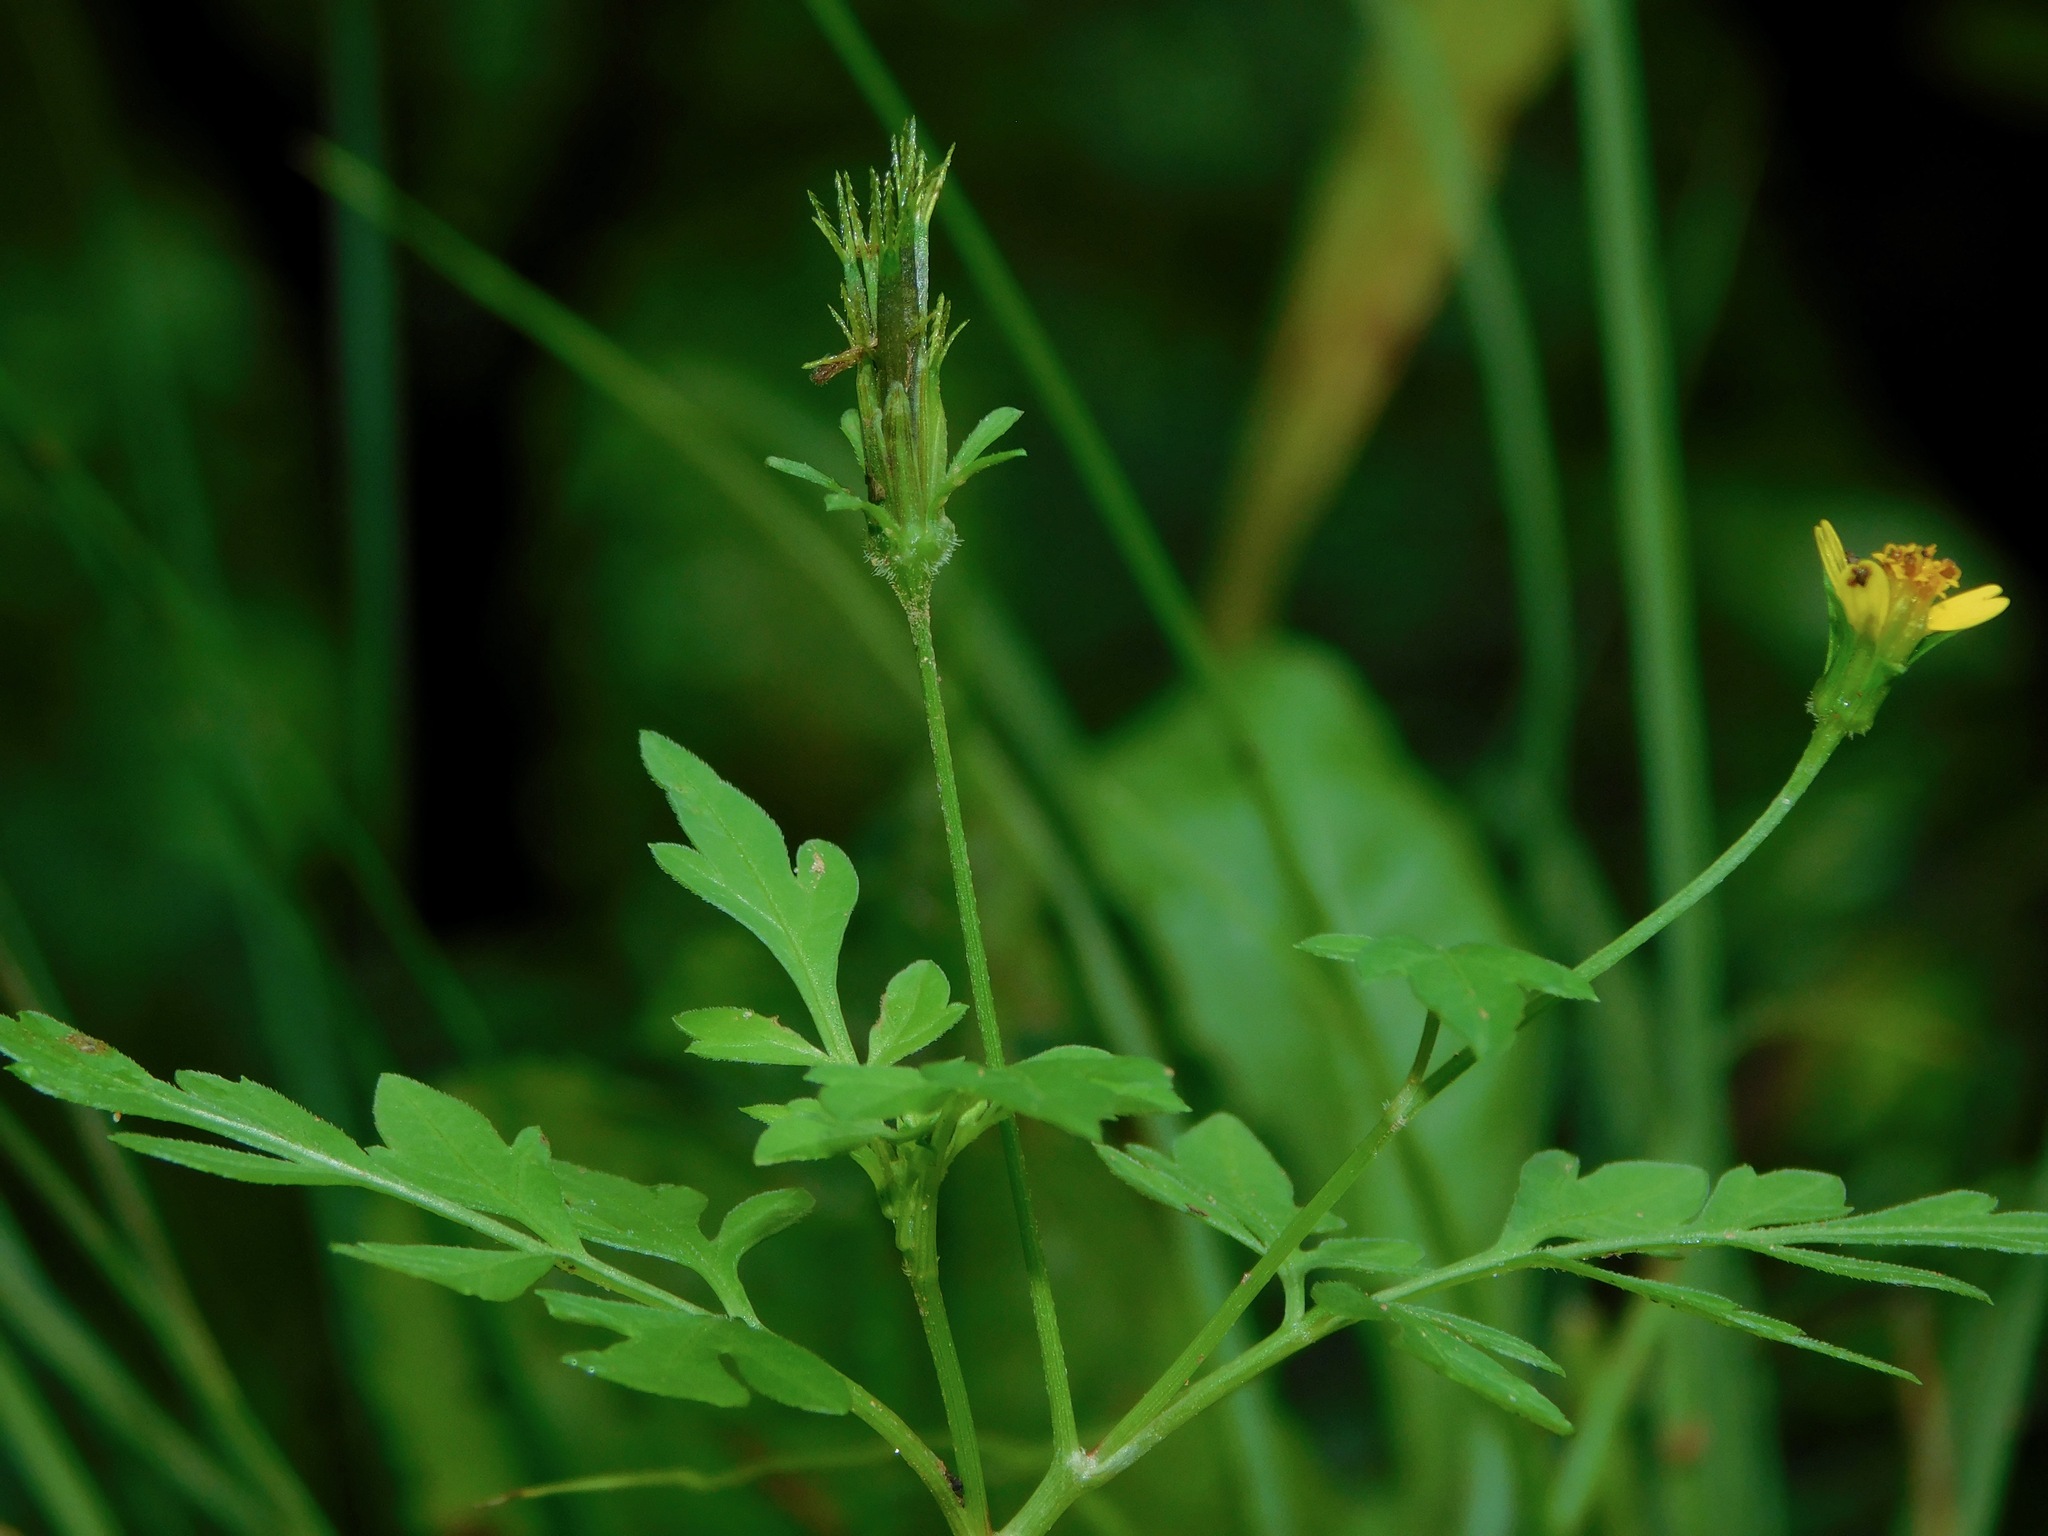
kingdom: Plantae
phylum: Tracheophyta
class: Magnoliopsida
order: Asterales
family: Asteraceae
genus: Bidens
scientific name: Bidens bipinnata
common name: Spanish-needles
